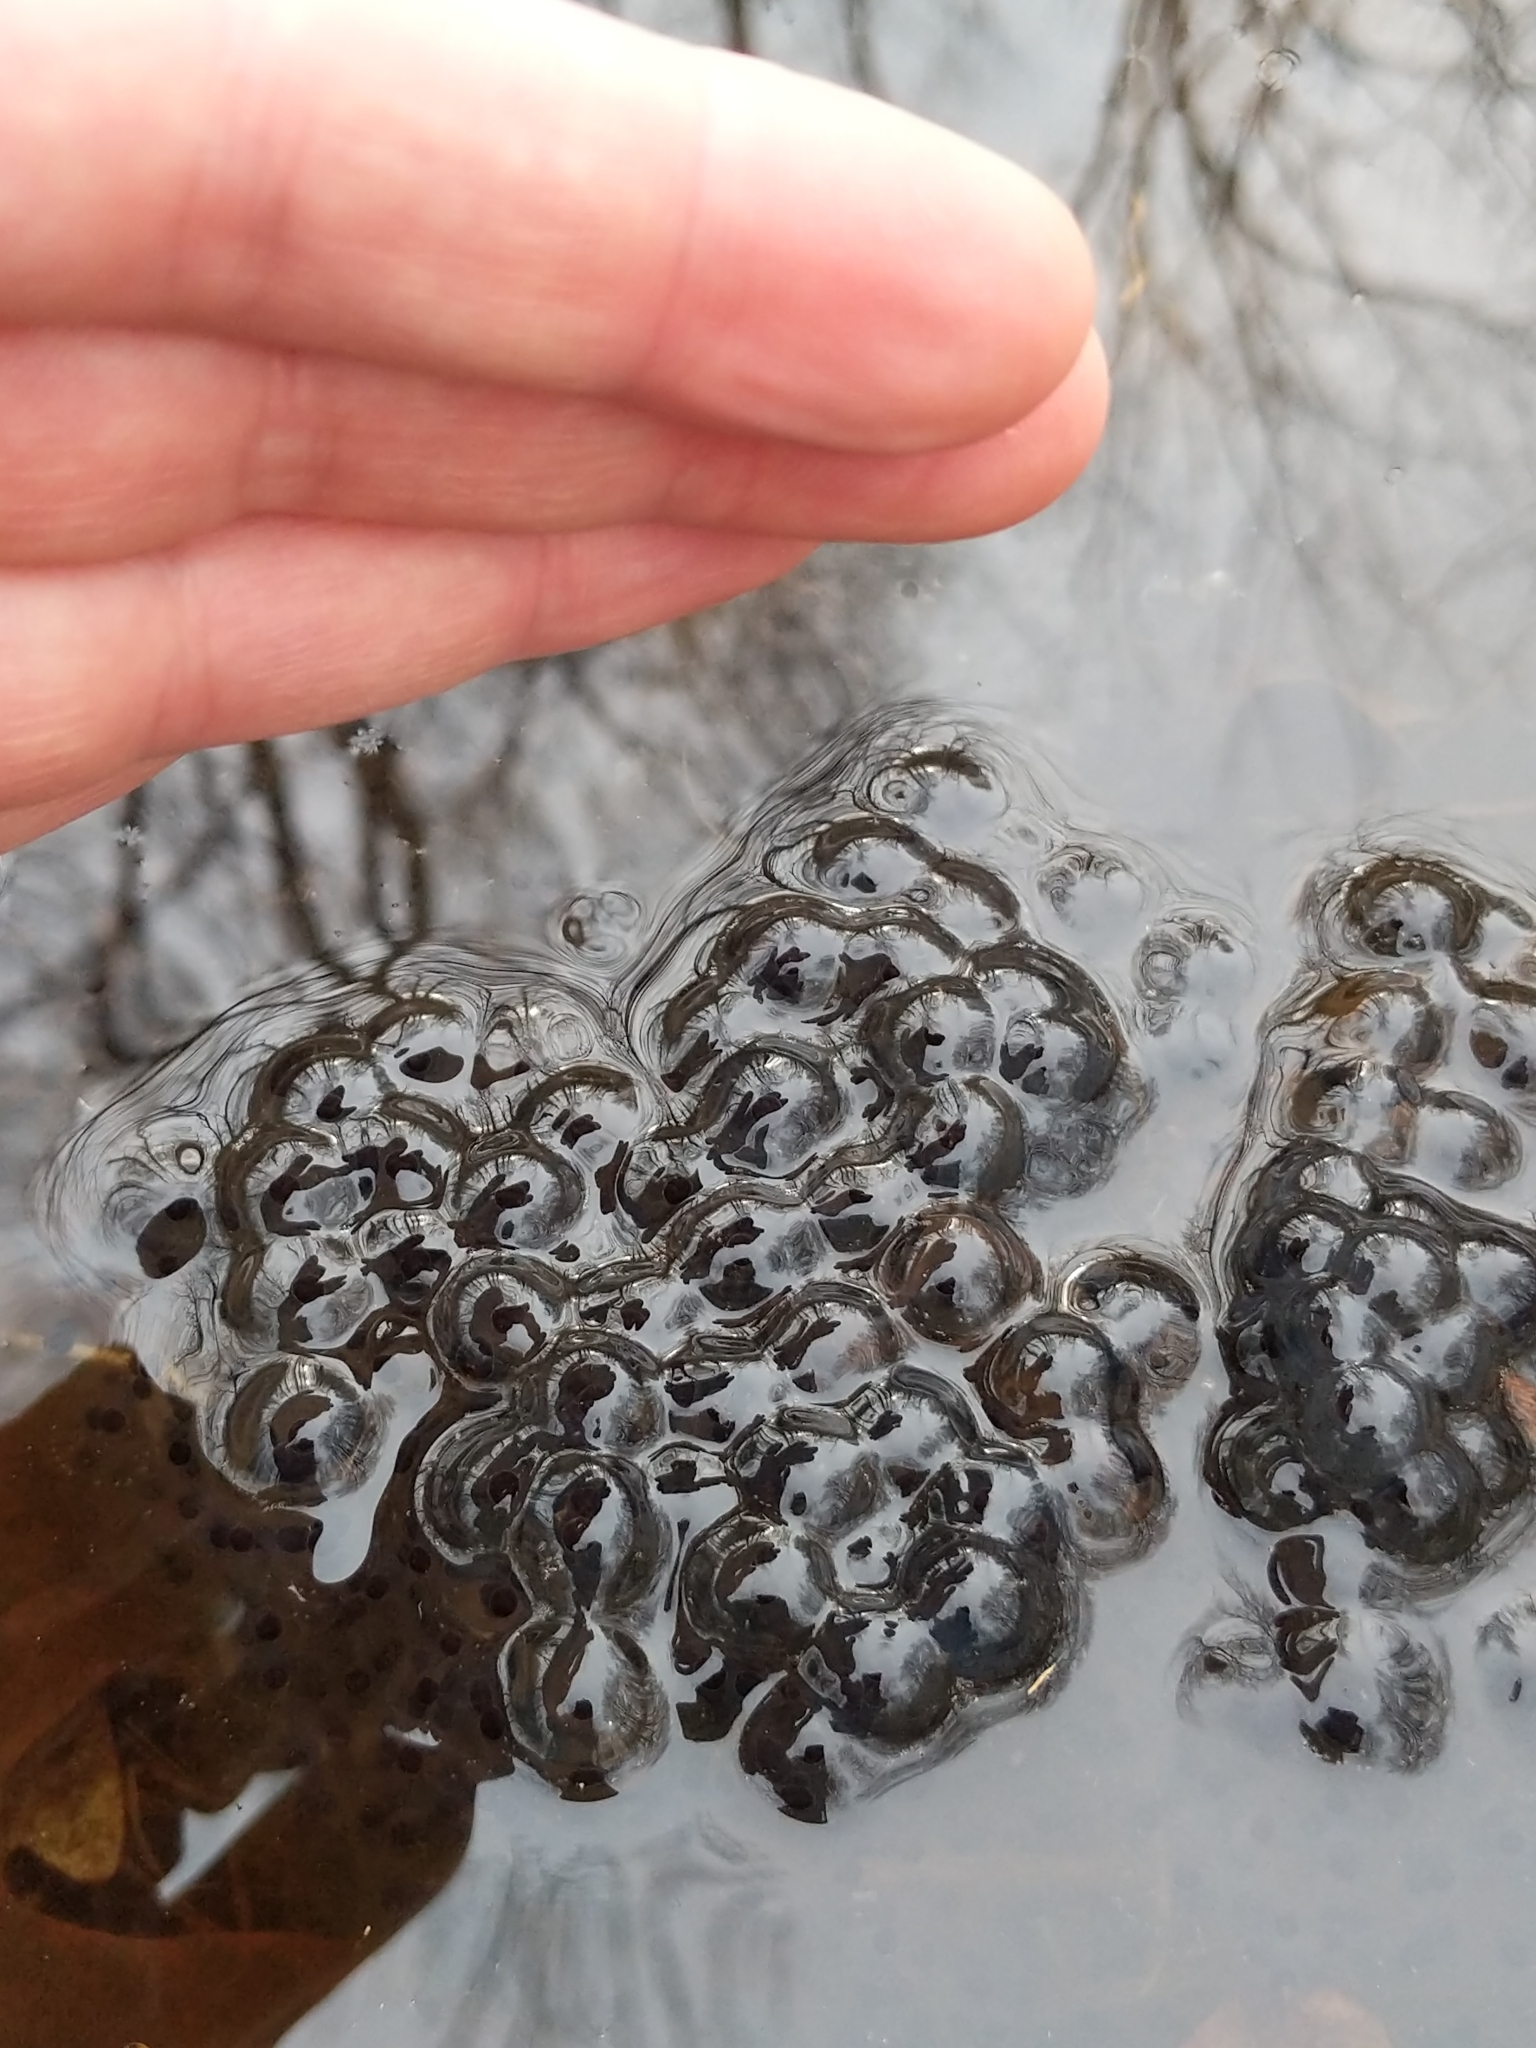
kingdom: Animalia
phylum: Chordata
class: Amphibia
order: Anura
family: Ranidae
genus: Lithobates
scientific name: Lithobates sylvaticus
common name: Wood frog
